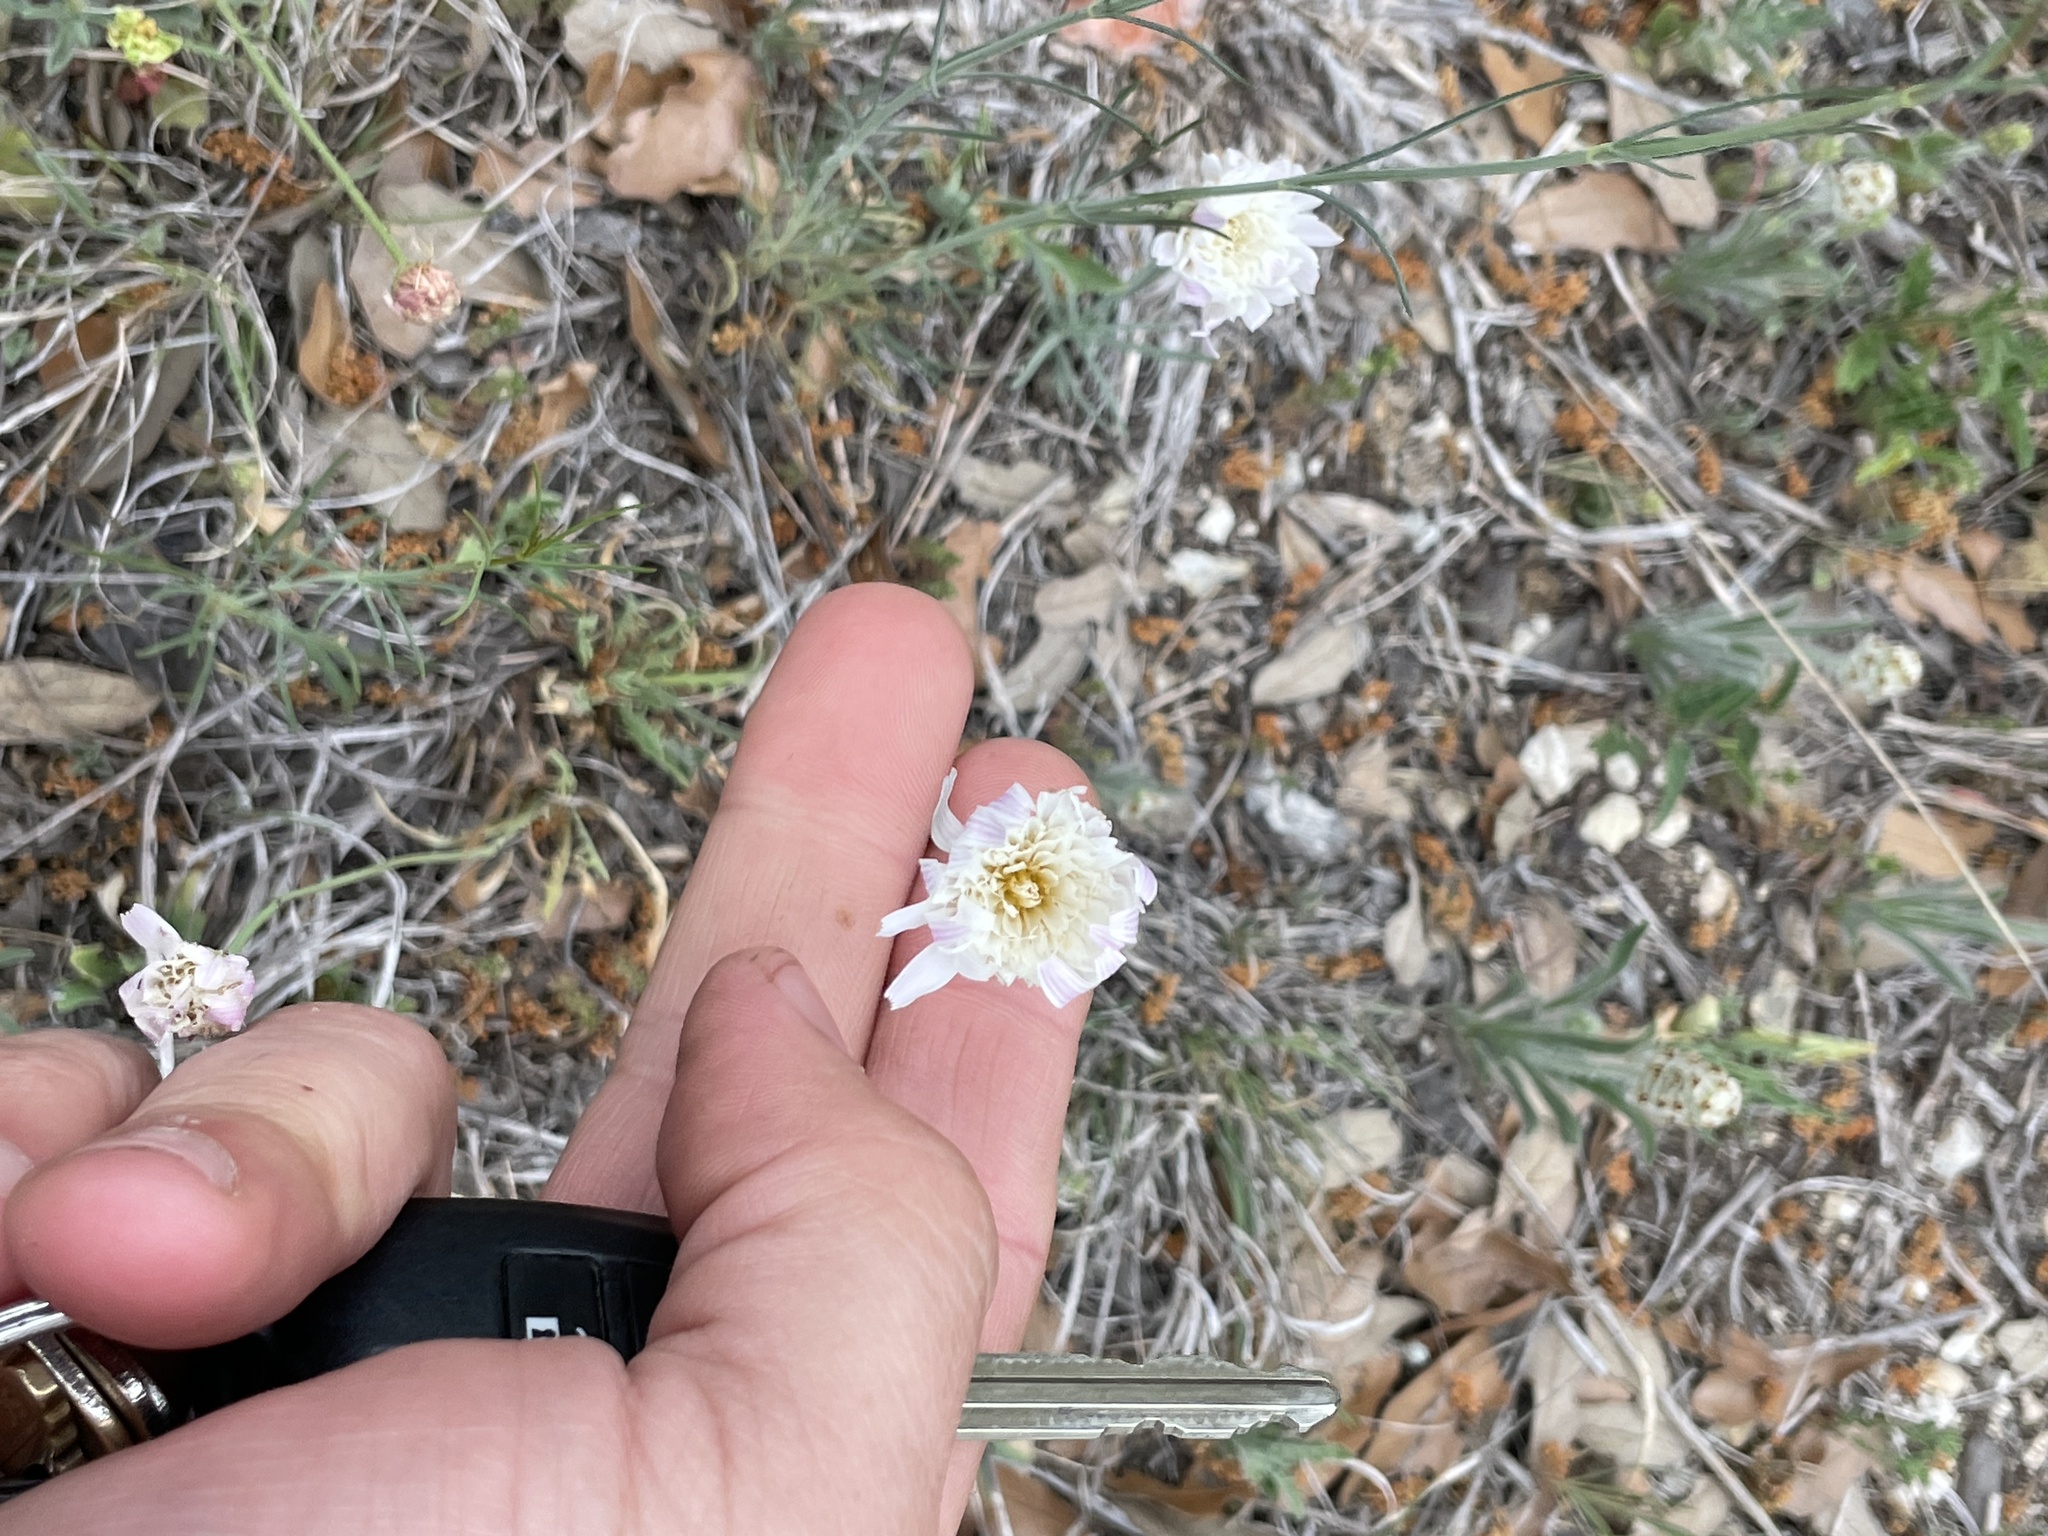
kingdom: Plantae
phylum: Tracheophyta
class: Magnoliopsida
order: Asterales
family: Asteraceae
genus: Pinaropappus
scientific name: Pinaropappus roseus
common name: Rock-lettuce
